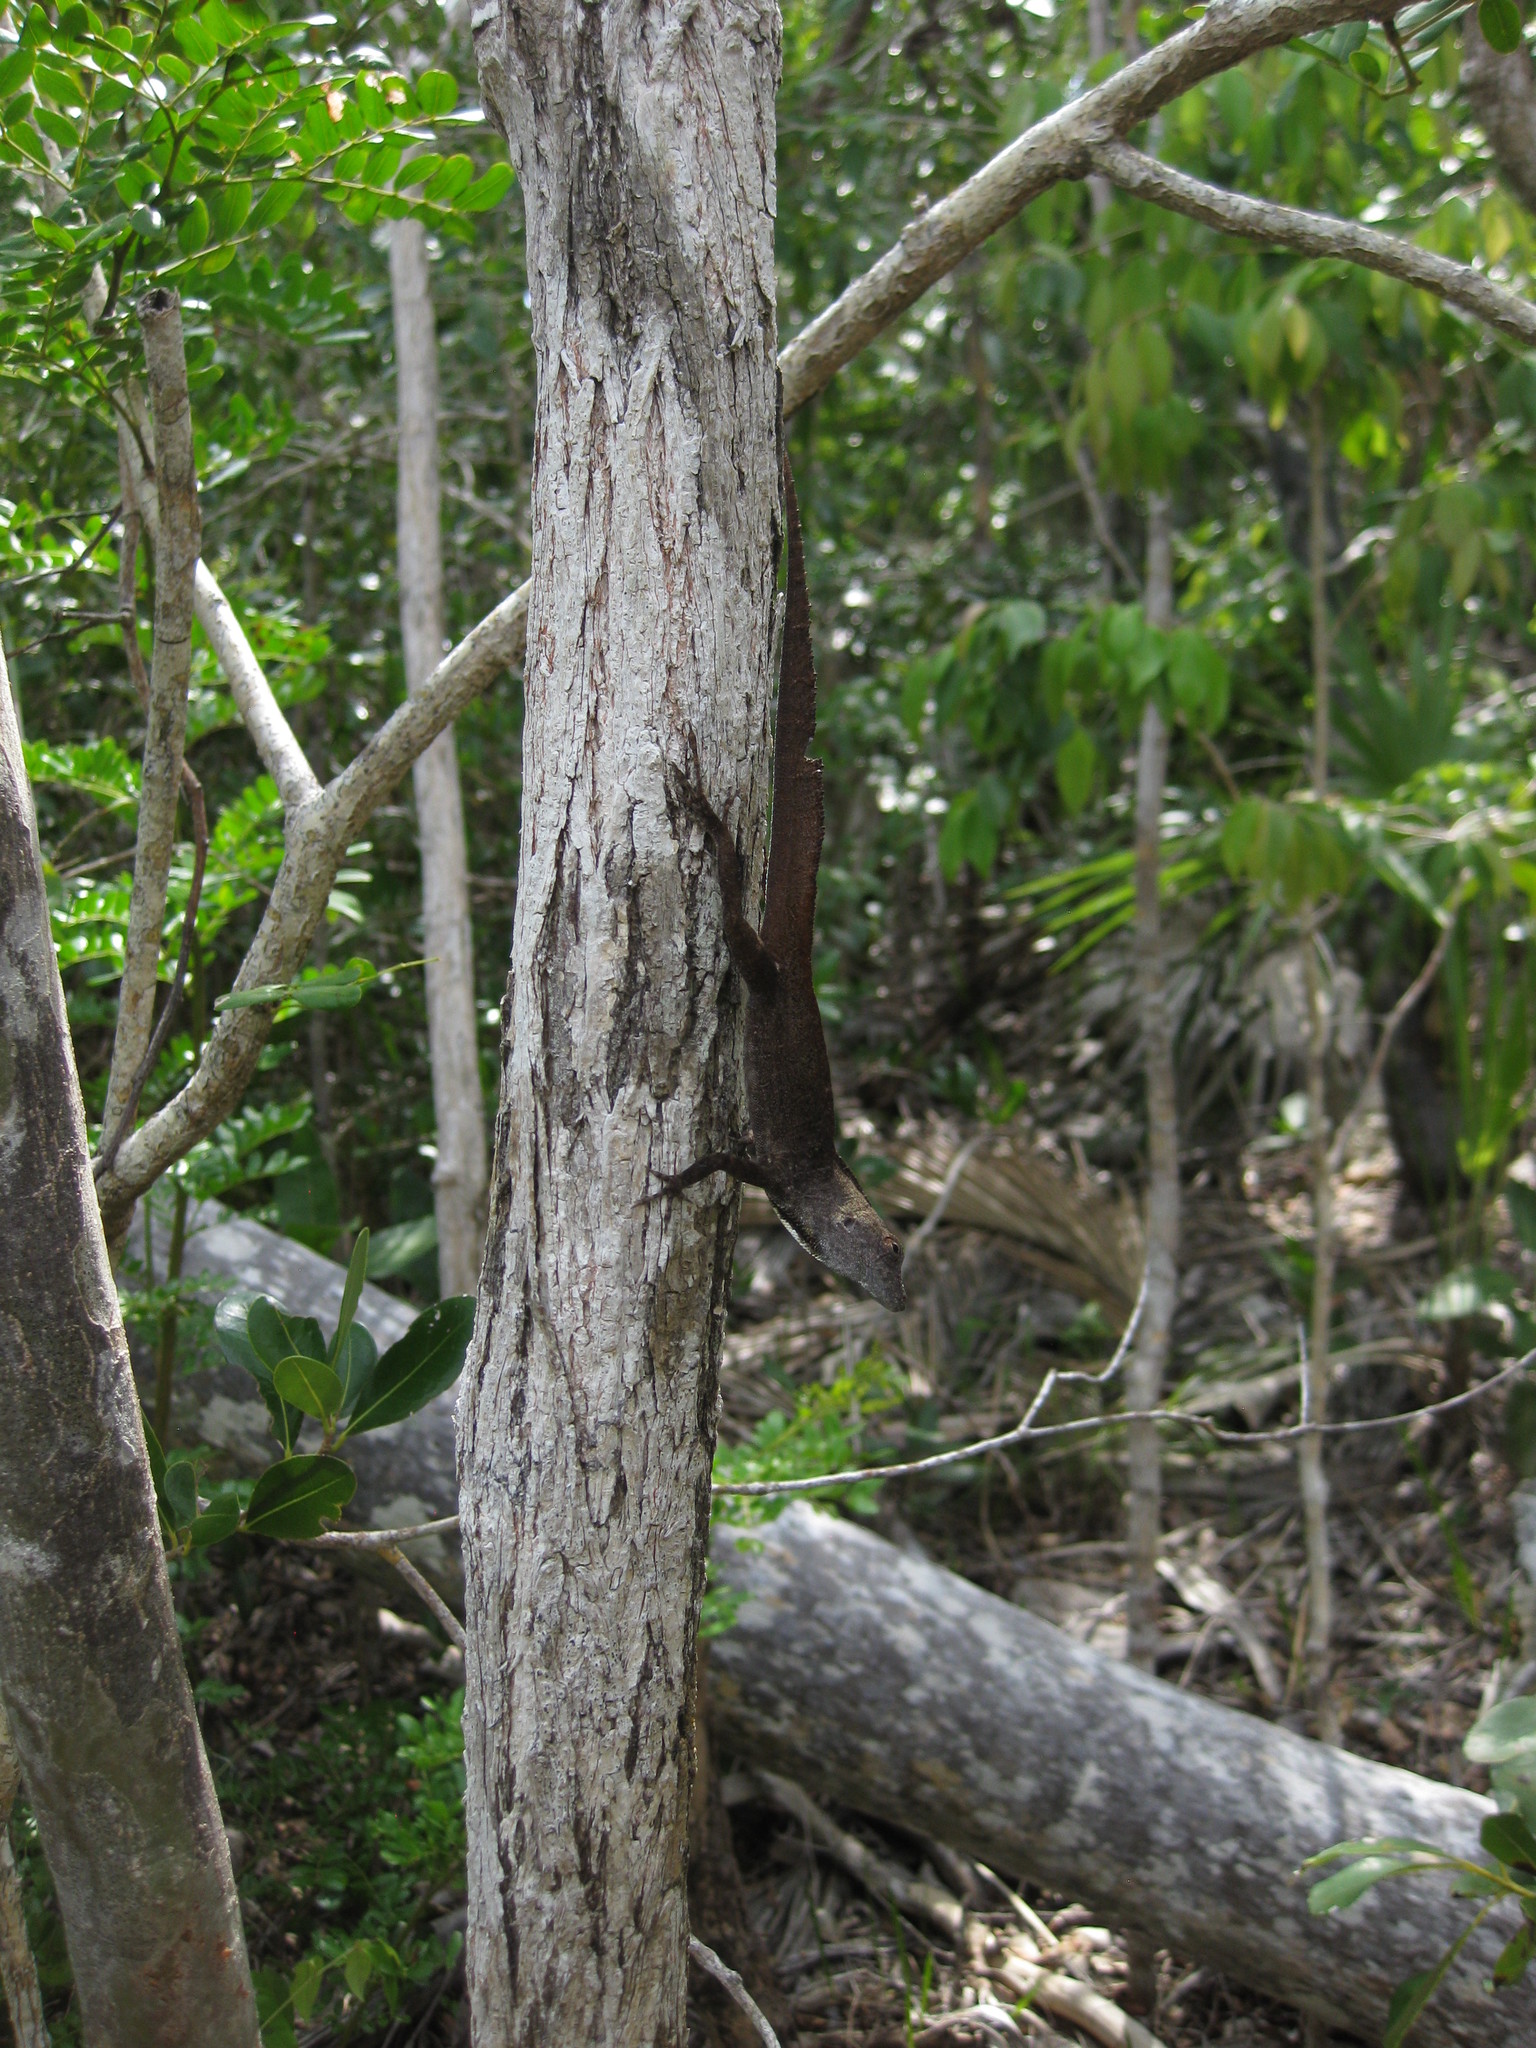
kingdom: Animalia
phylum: Chordata
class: Squamata
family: Dactyloidae
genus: Anolis
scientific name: Anolis sagrei
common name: Brown anole
